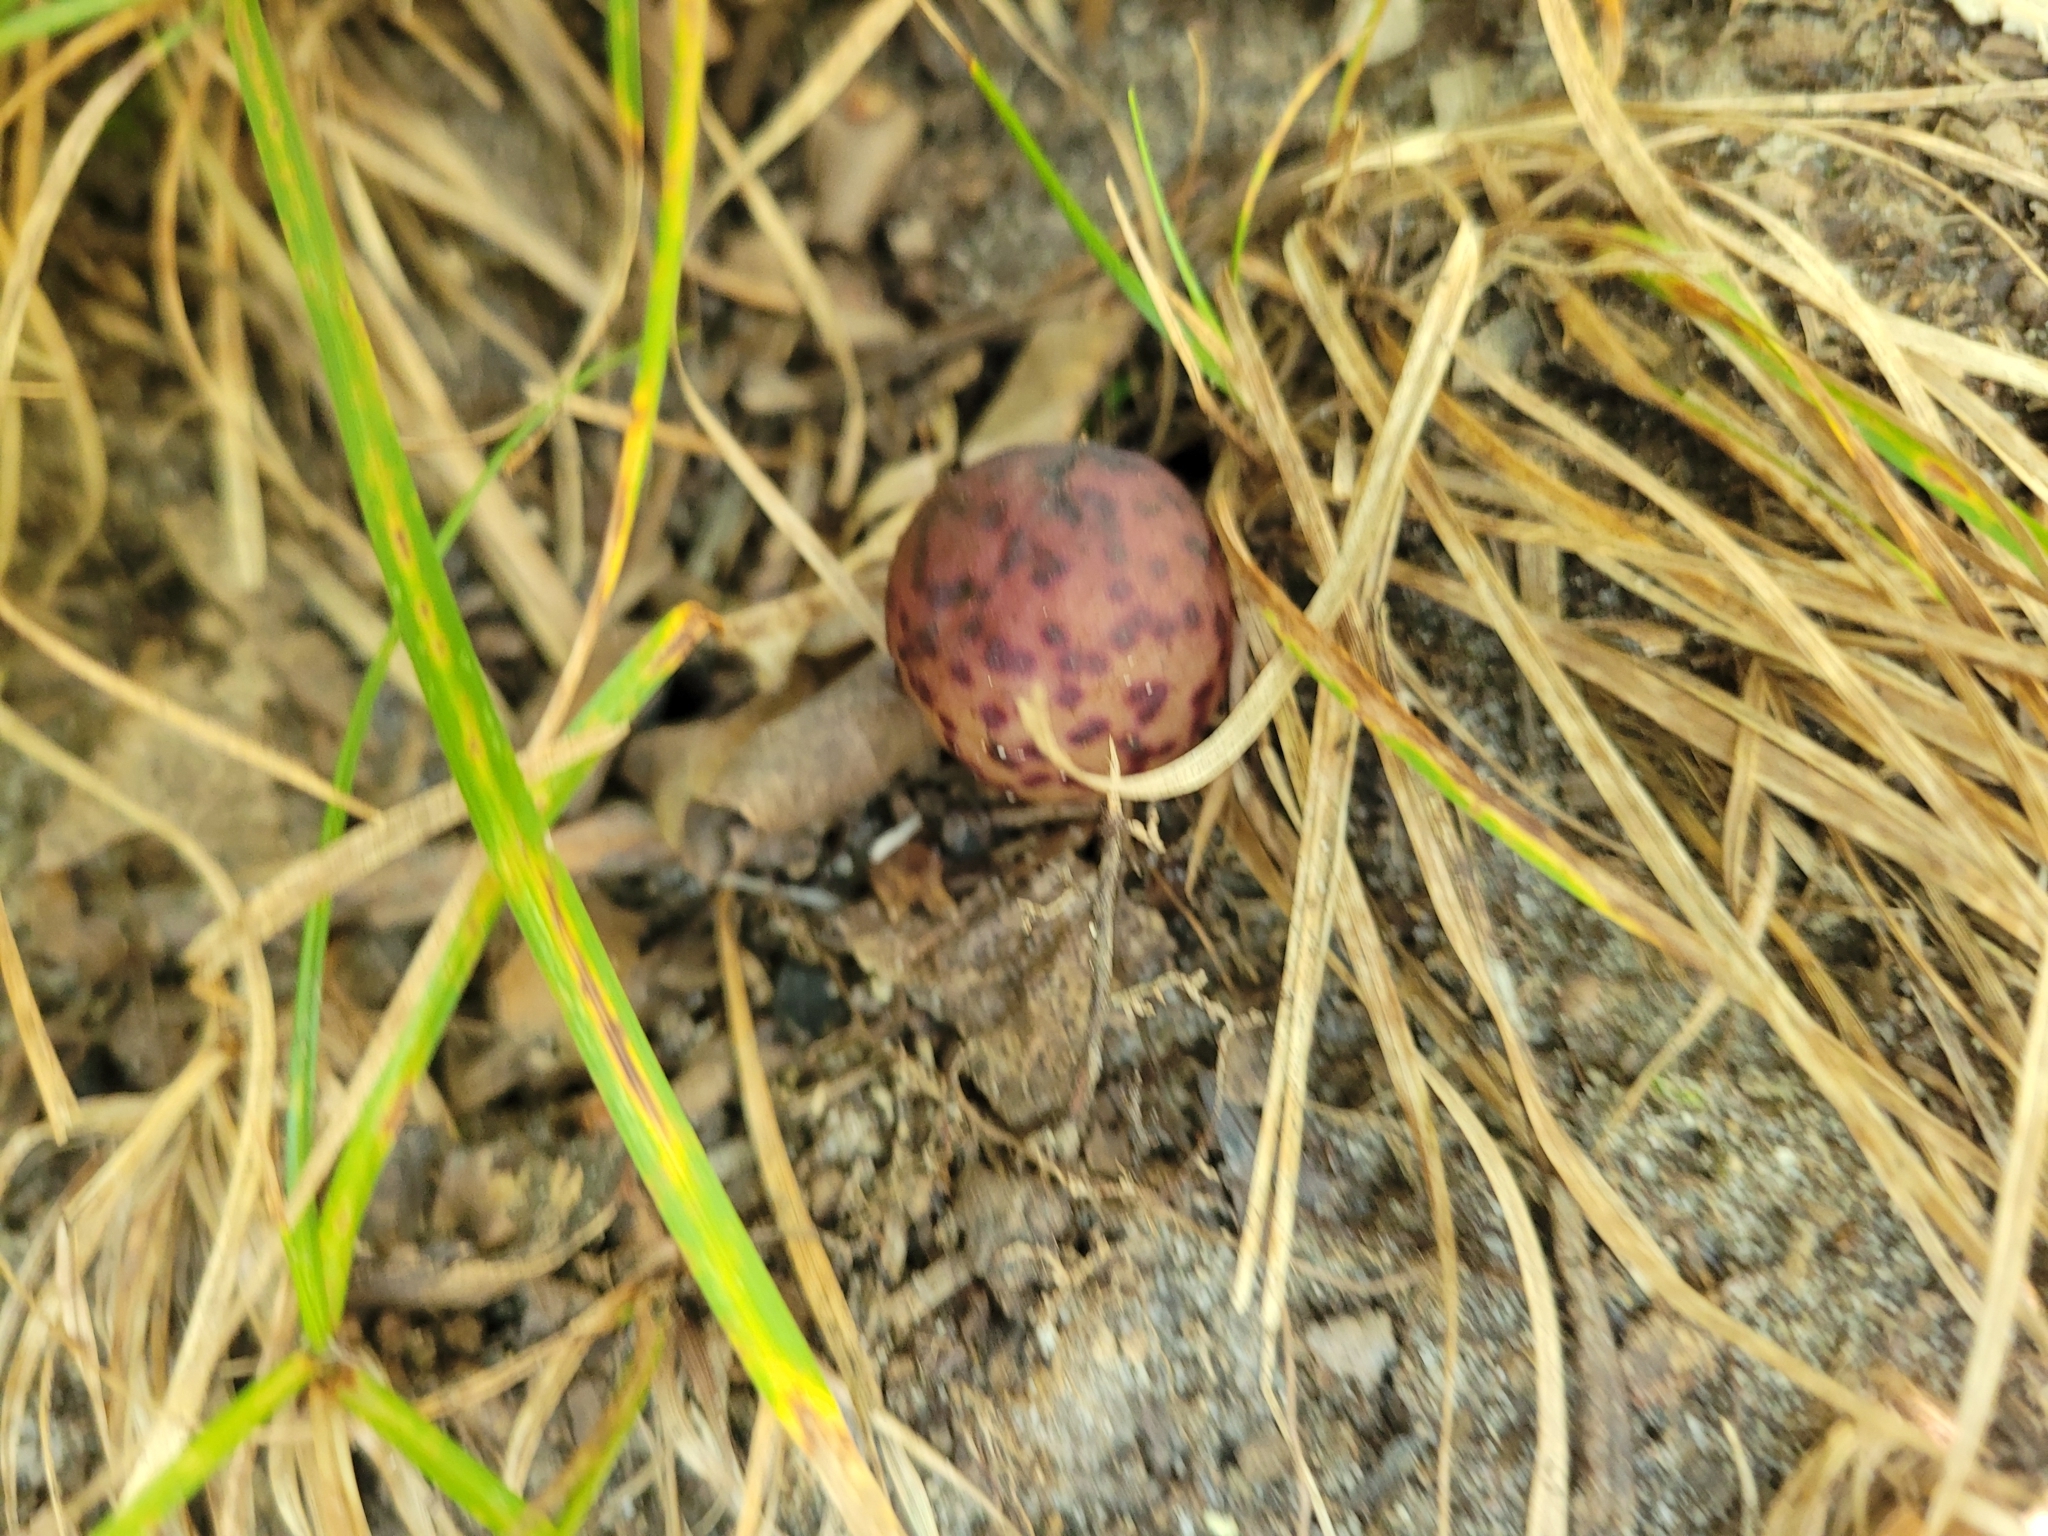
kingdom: Animalia
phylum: Arthropoda
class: Insecta
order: Hymenoptera
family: Cynipidae
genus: Amphibolips
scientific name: Amphibolips
